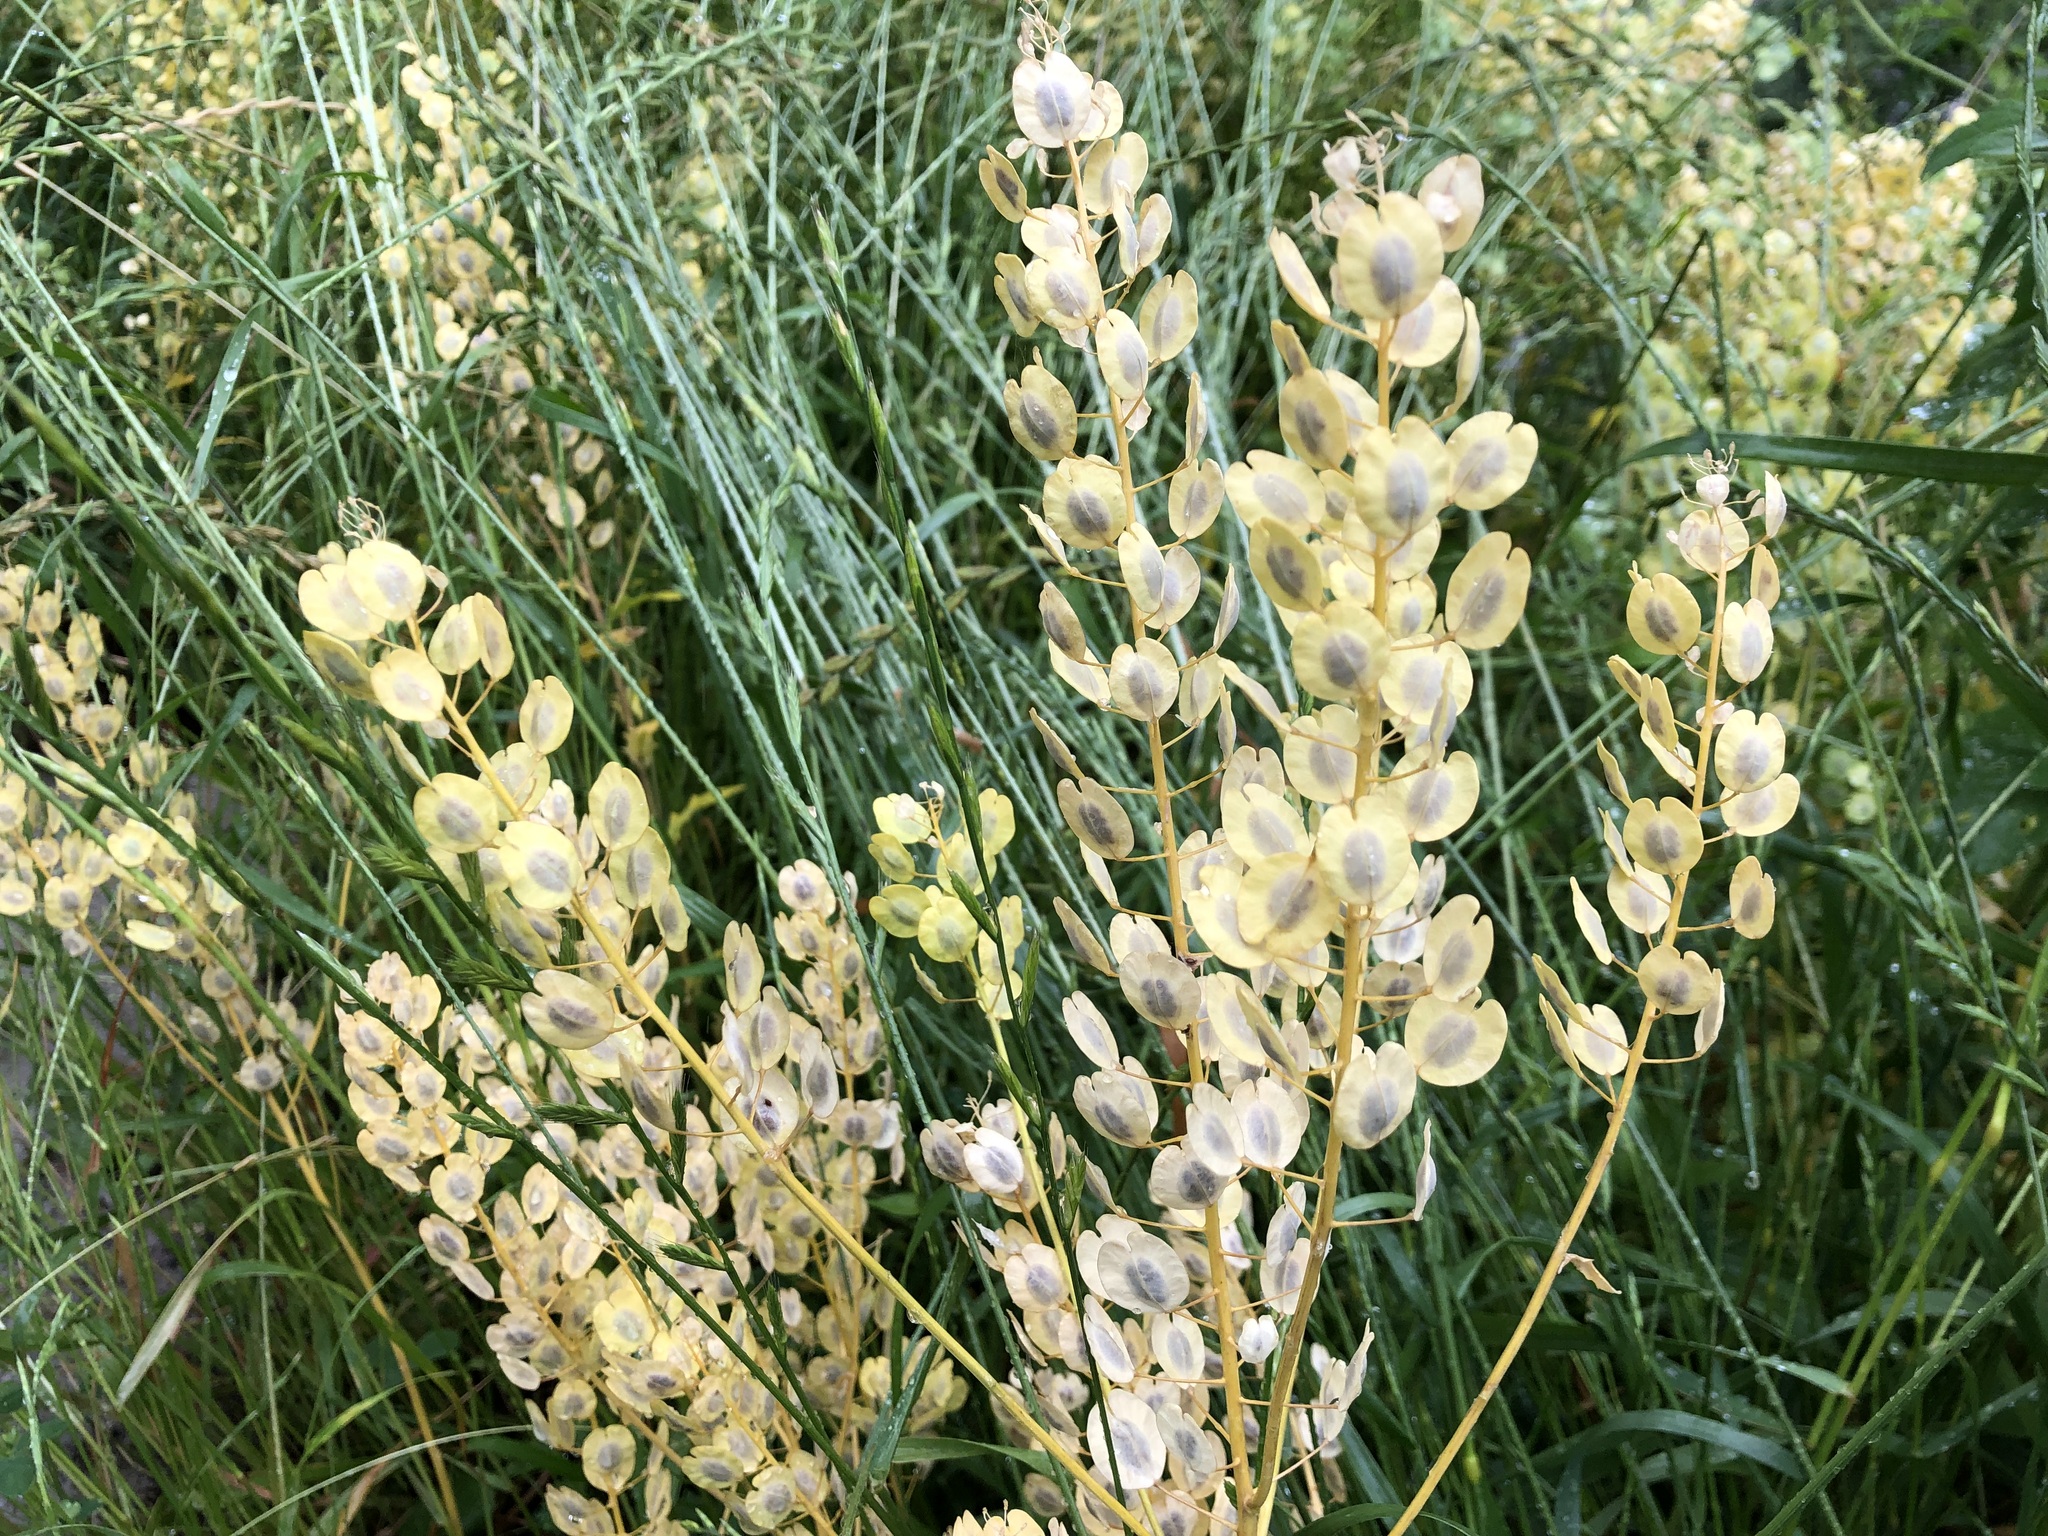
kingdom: Plantae
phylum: Tracheophyta
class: Magnoliopsida
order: Brassicales
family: Brassicaceae
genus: Thlaspi
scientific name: Thlaspi arvense
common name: Field pennycress
